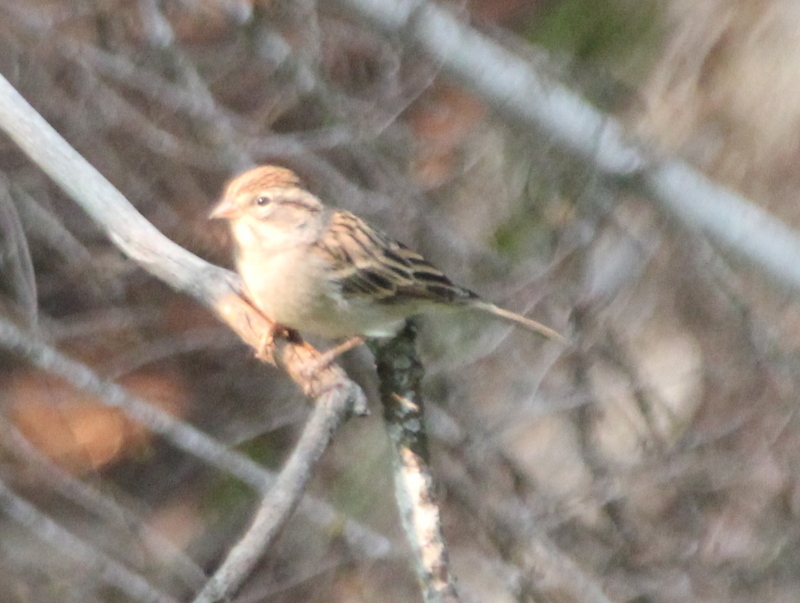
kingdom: Animalia
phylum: Chordata
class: Aves
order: Passeriformes
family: Passerellidae
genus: Spizella
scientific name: Spizella passerina
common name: Chipping sparrow
